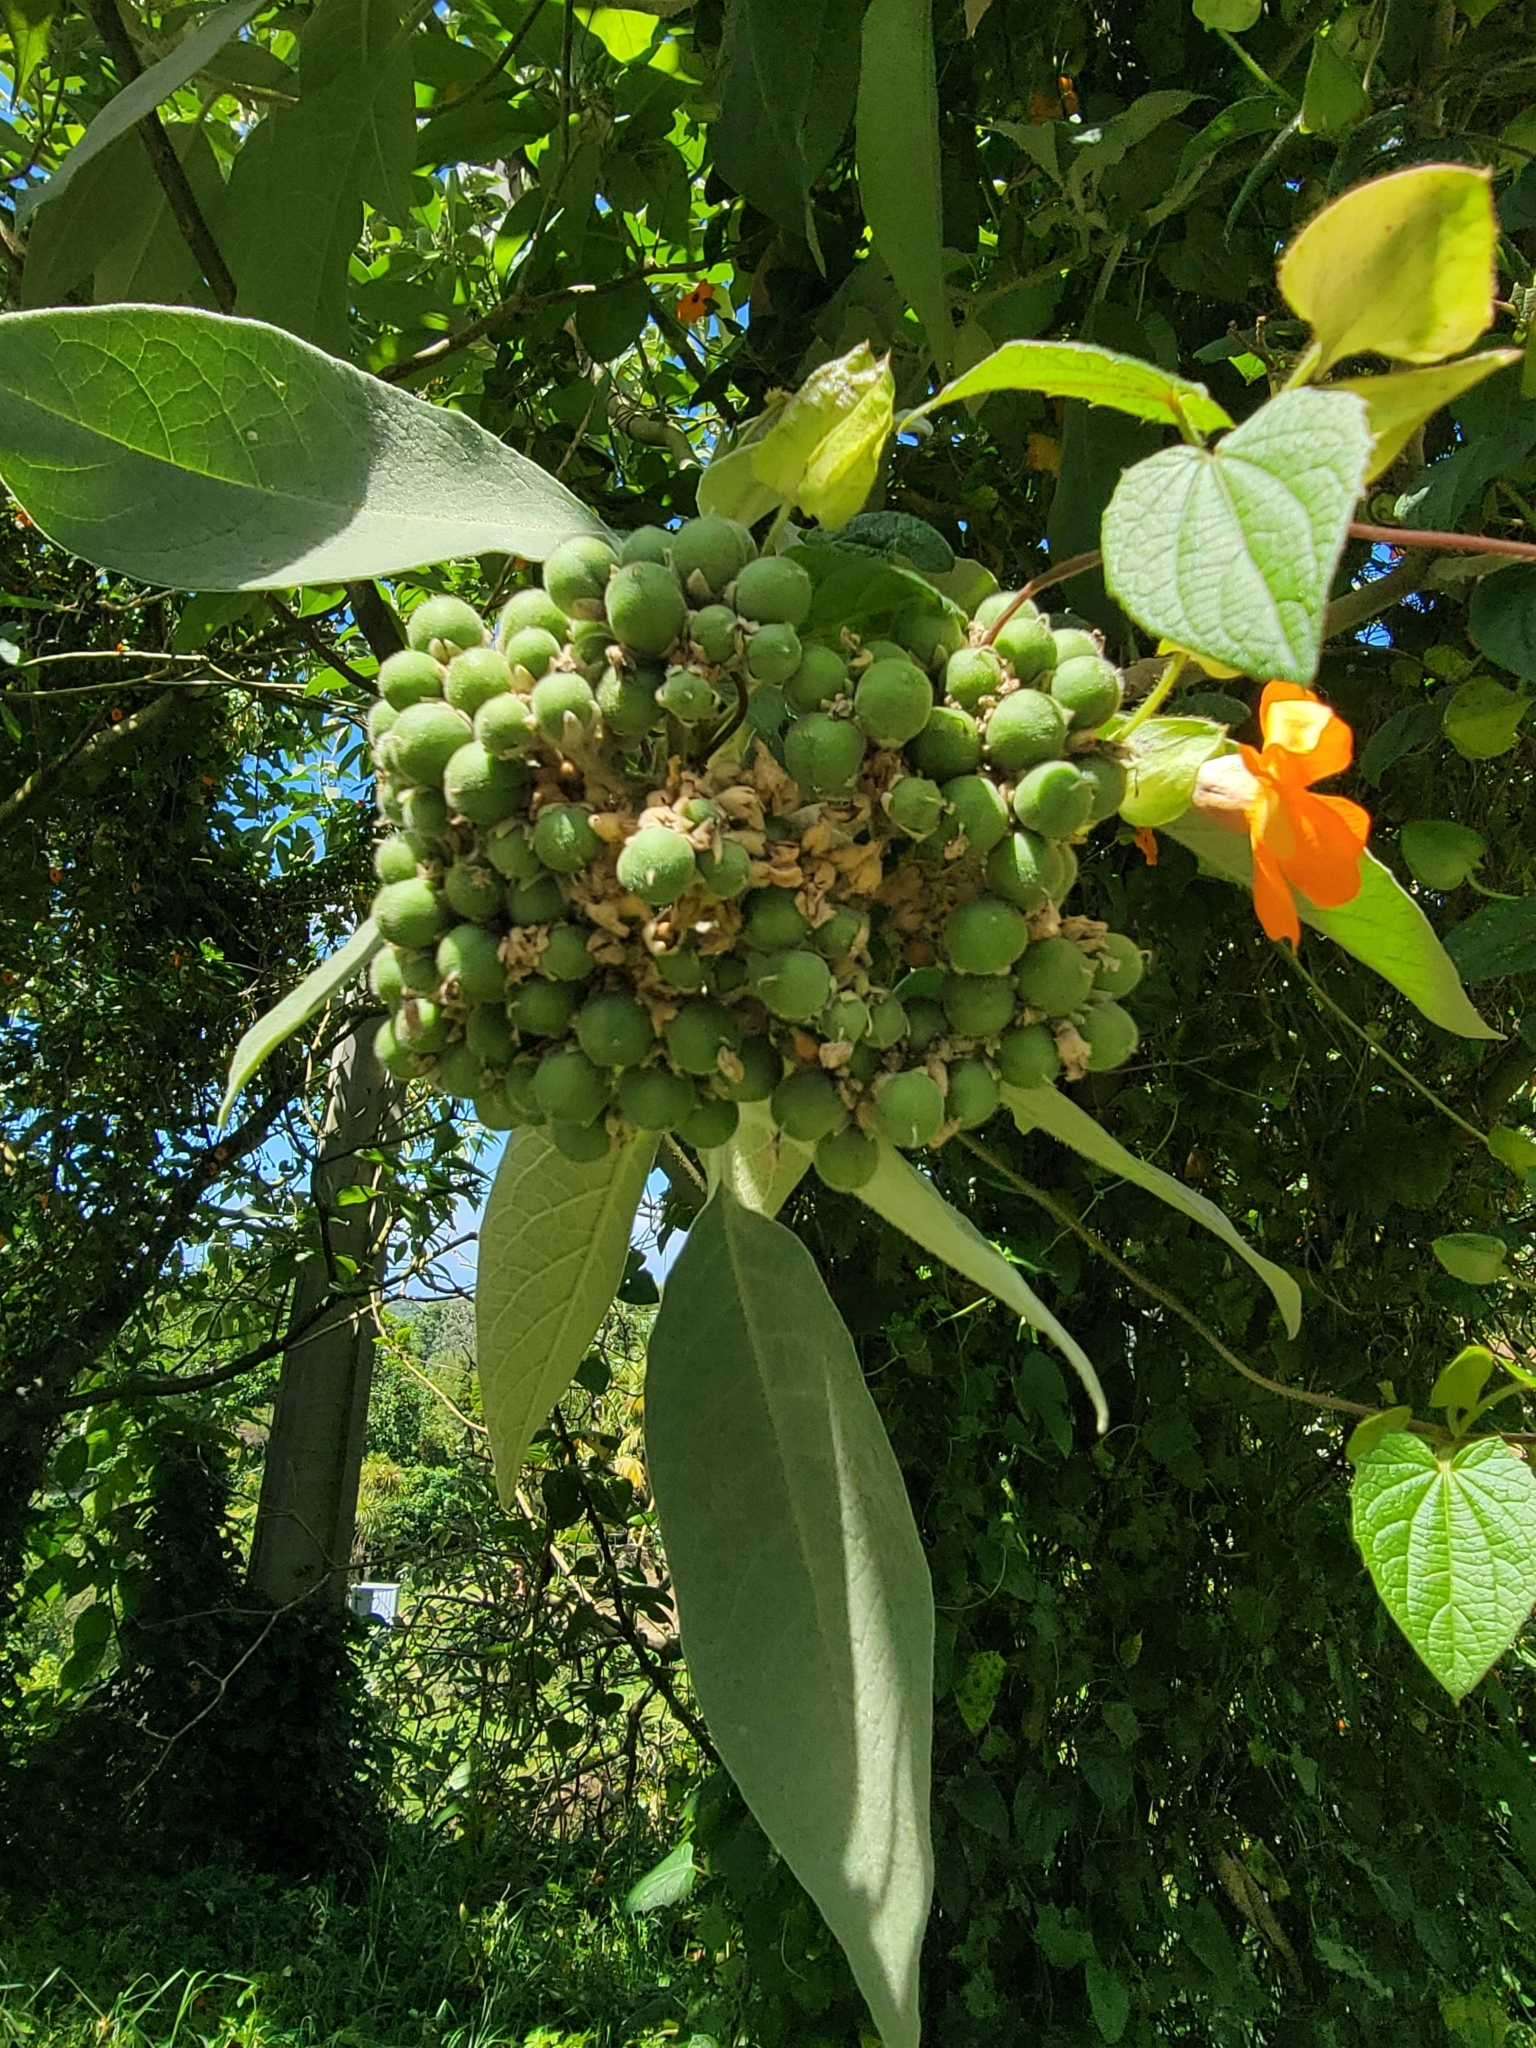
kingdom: Plantae
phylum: Tracheophyta
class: Magnoliopsida
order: Solanales
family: Solanaceae
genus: Solanum
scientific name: Solanum mauritianum
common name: Earleaf nightshade
